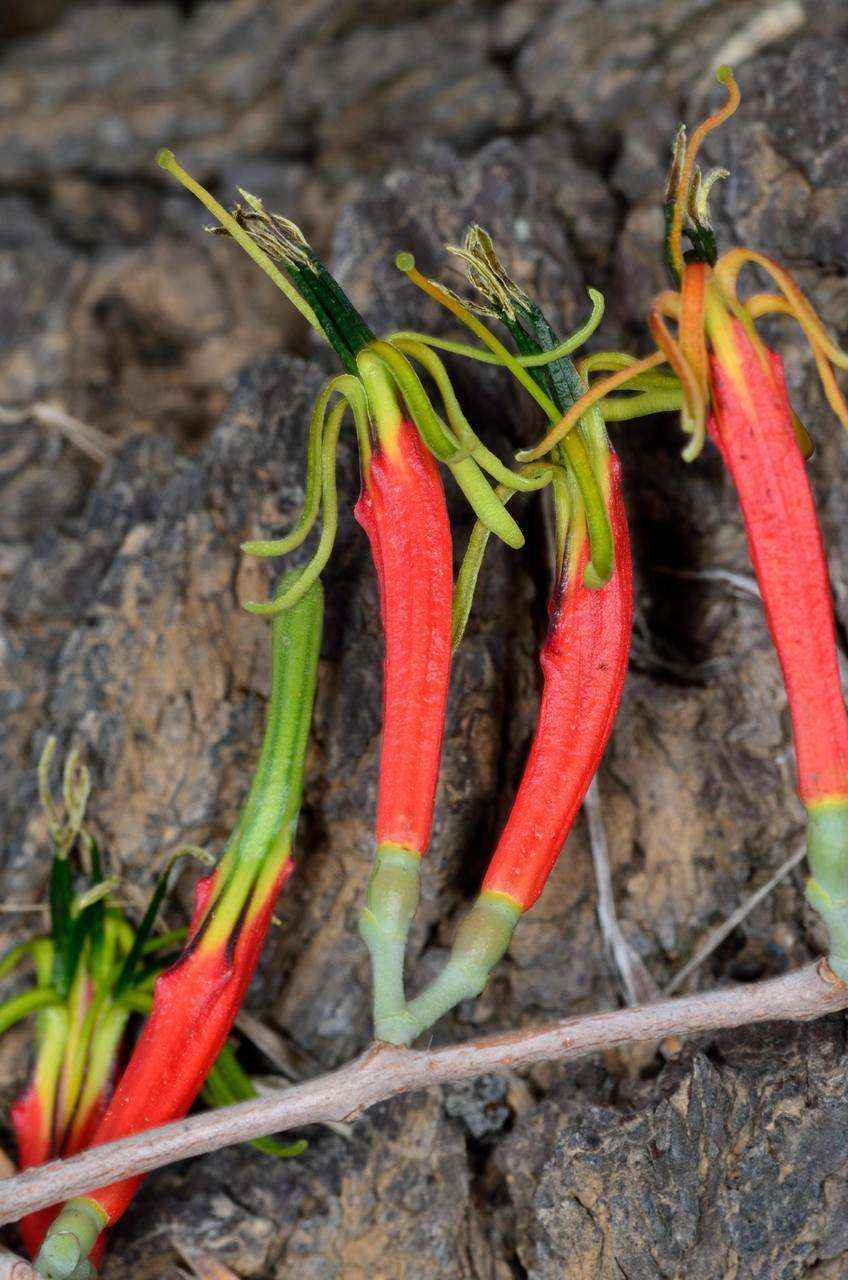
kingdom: Plantae
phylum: Tracheophyta
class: Magnoliopsida
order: Santalales
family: Loranthaceae
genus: Lysiana
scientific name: Lysiana exocarpi
